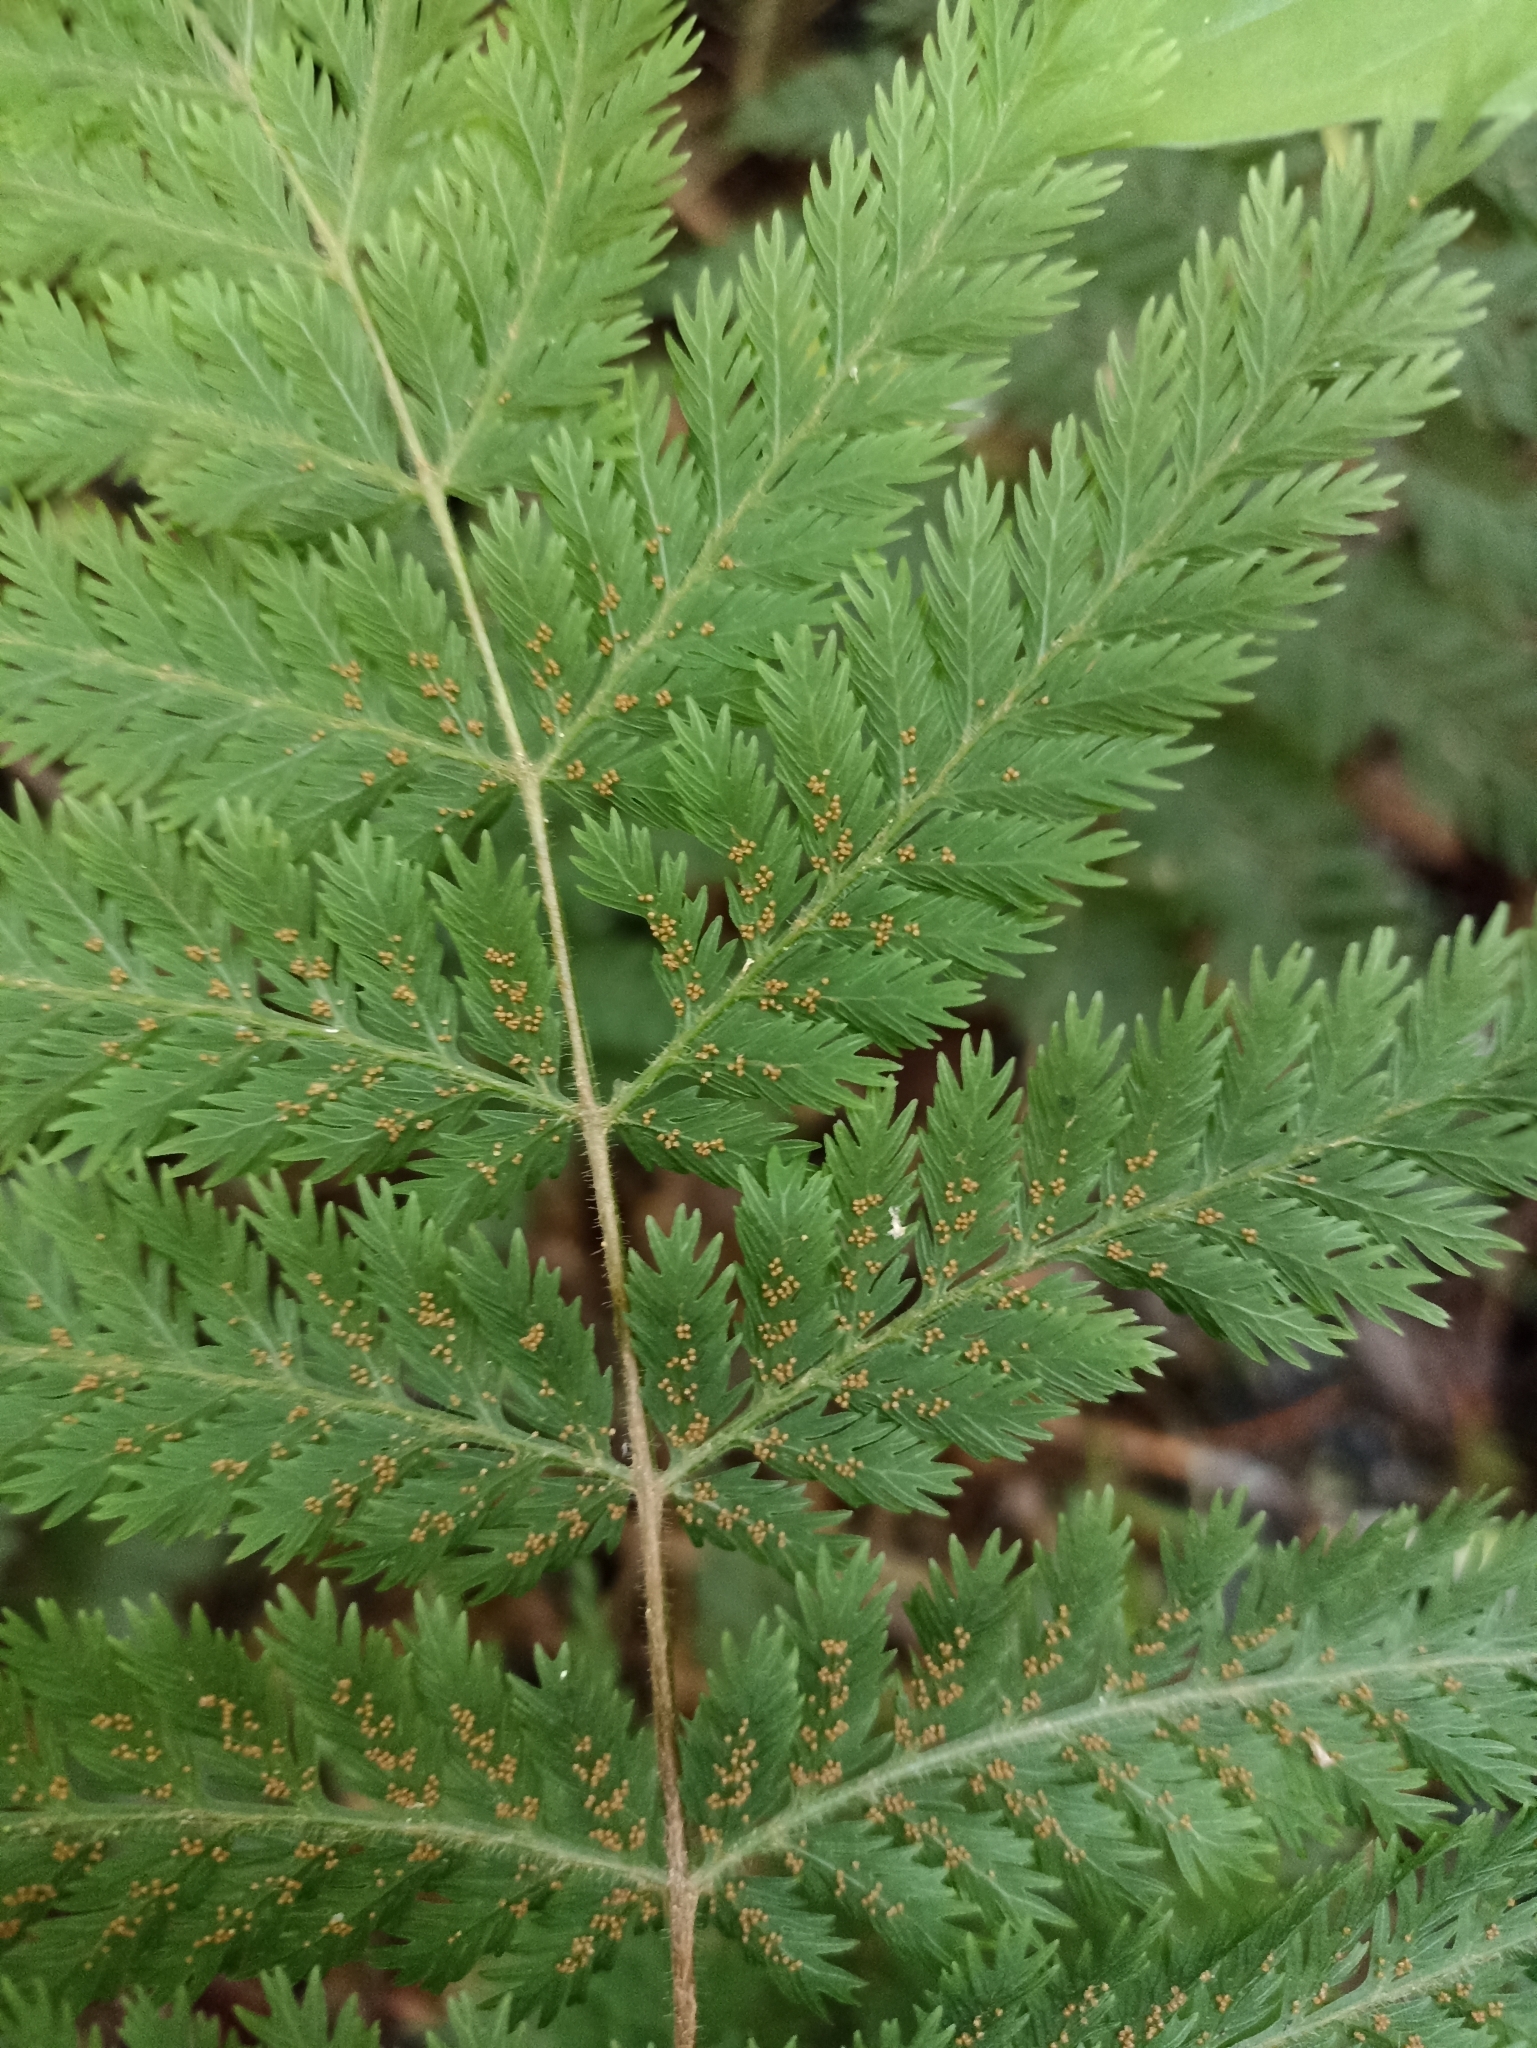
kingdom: Plantae
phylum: Tracheophyta
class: Polypodiopsida
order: Osmundales
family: Osmundaceae
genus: Leptopteris
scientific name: Leptopteris hymenophylloides
